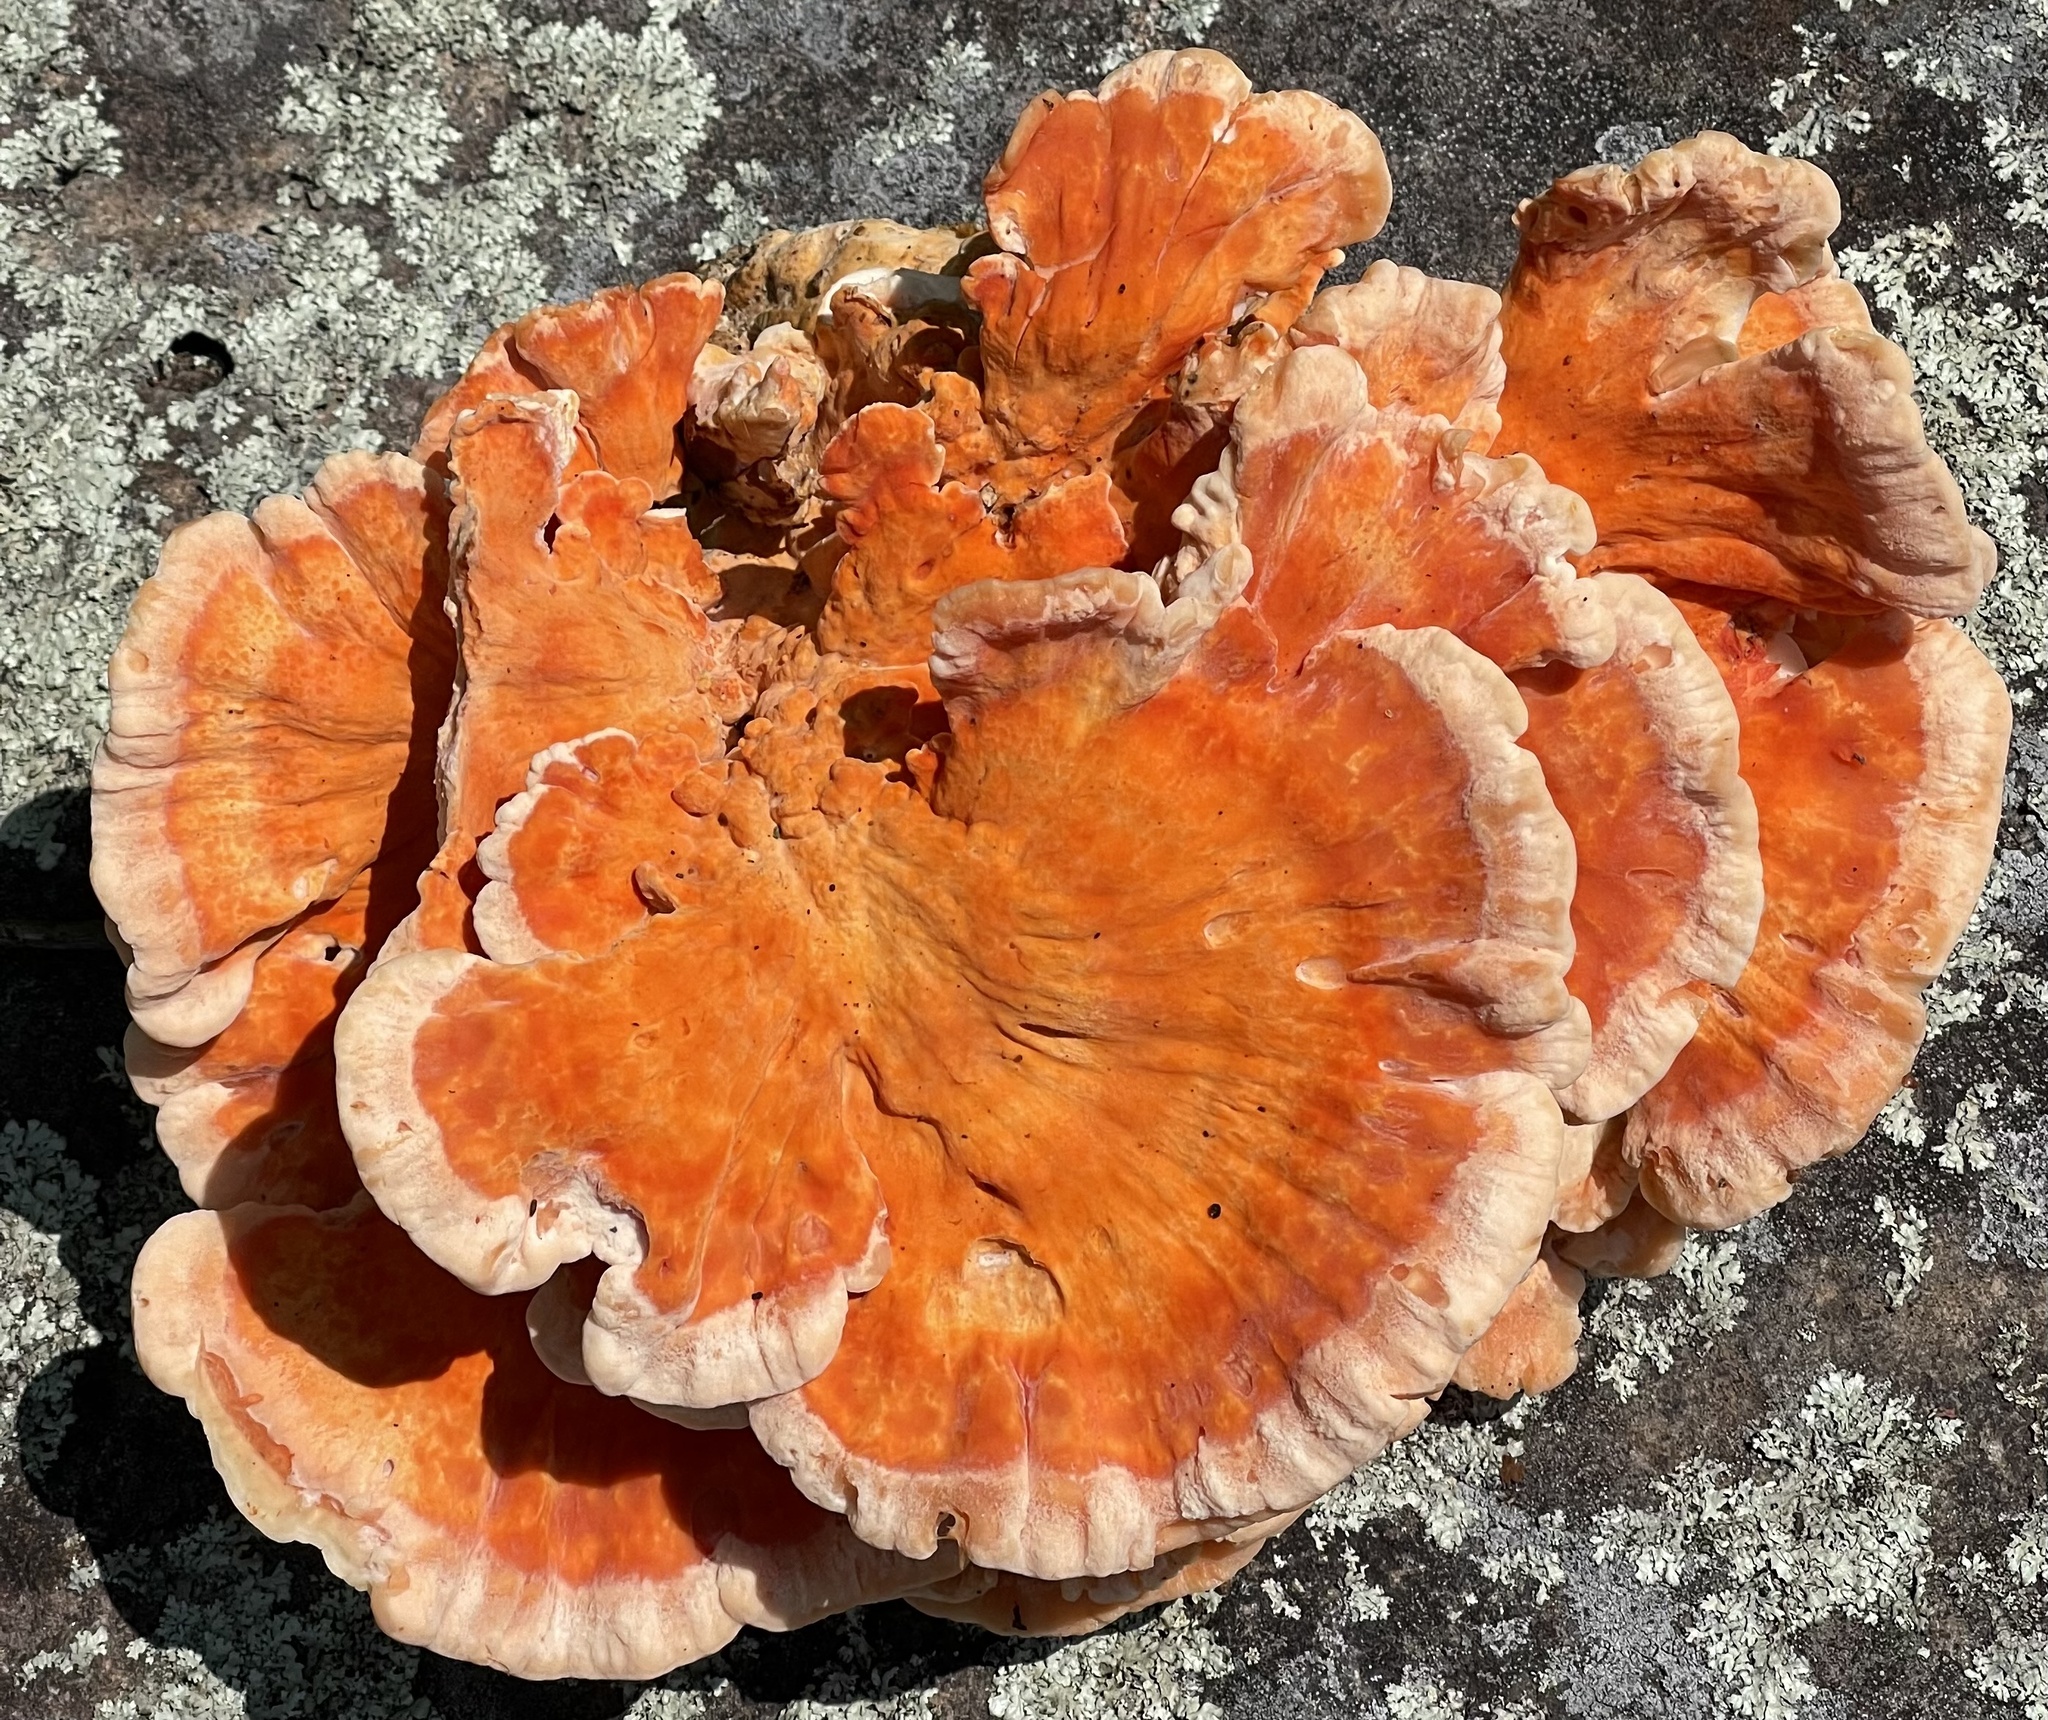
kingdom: Fungi
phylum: Basidiomycota
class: Agaricomycetes
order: Polyporales
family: Laetiporaceae
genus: Laetiporus
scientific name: Laetiporus sulphureus
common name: Chicken of the woods
